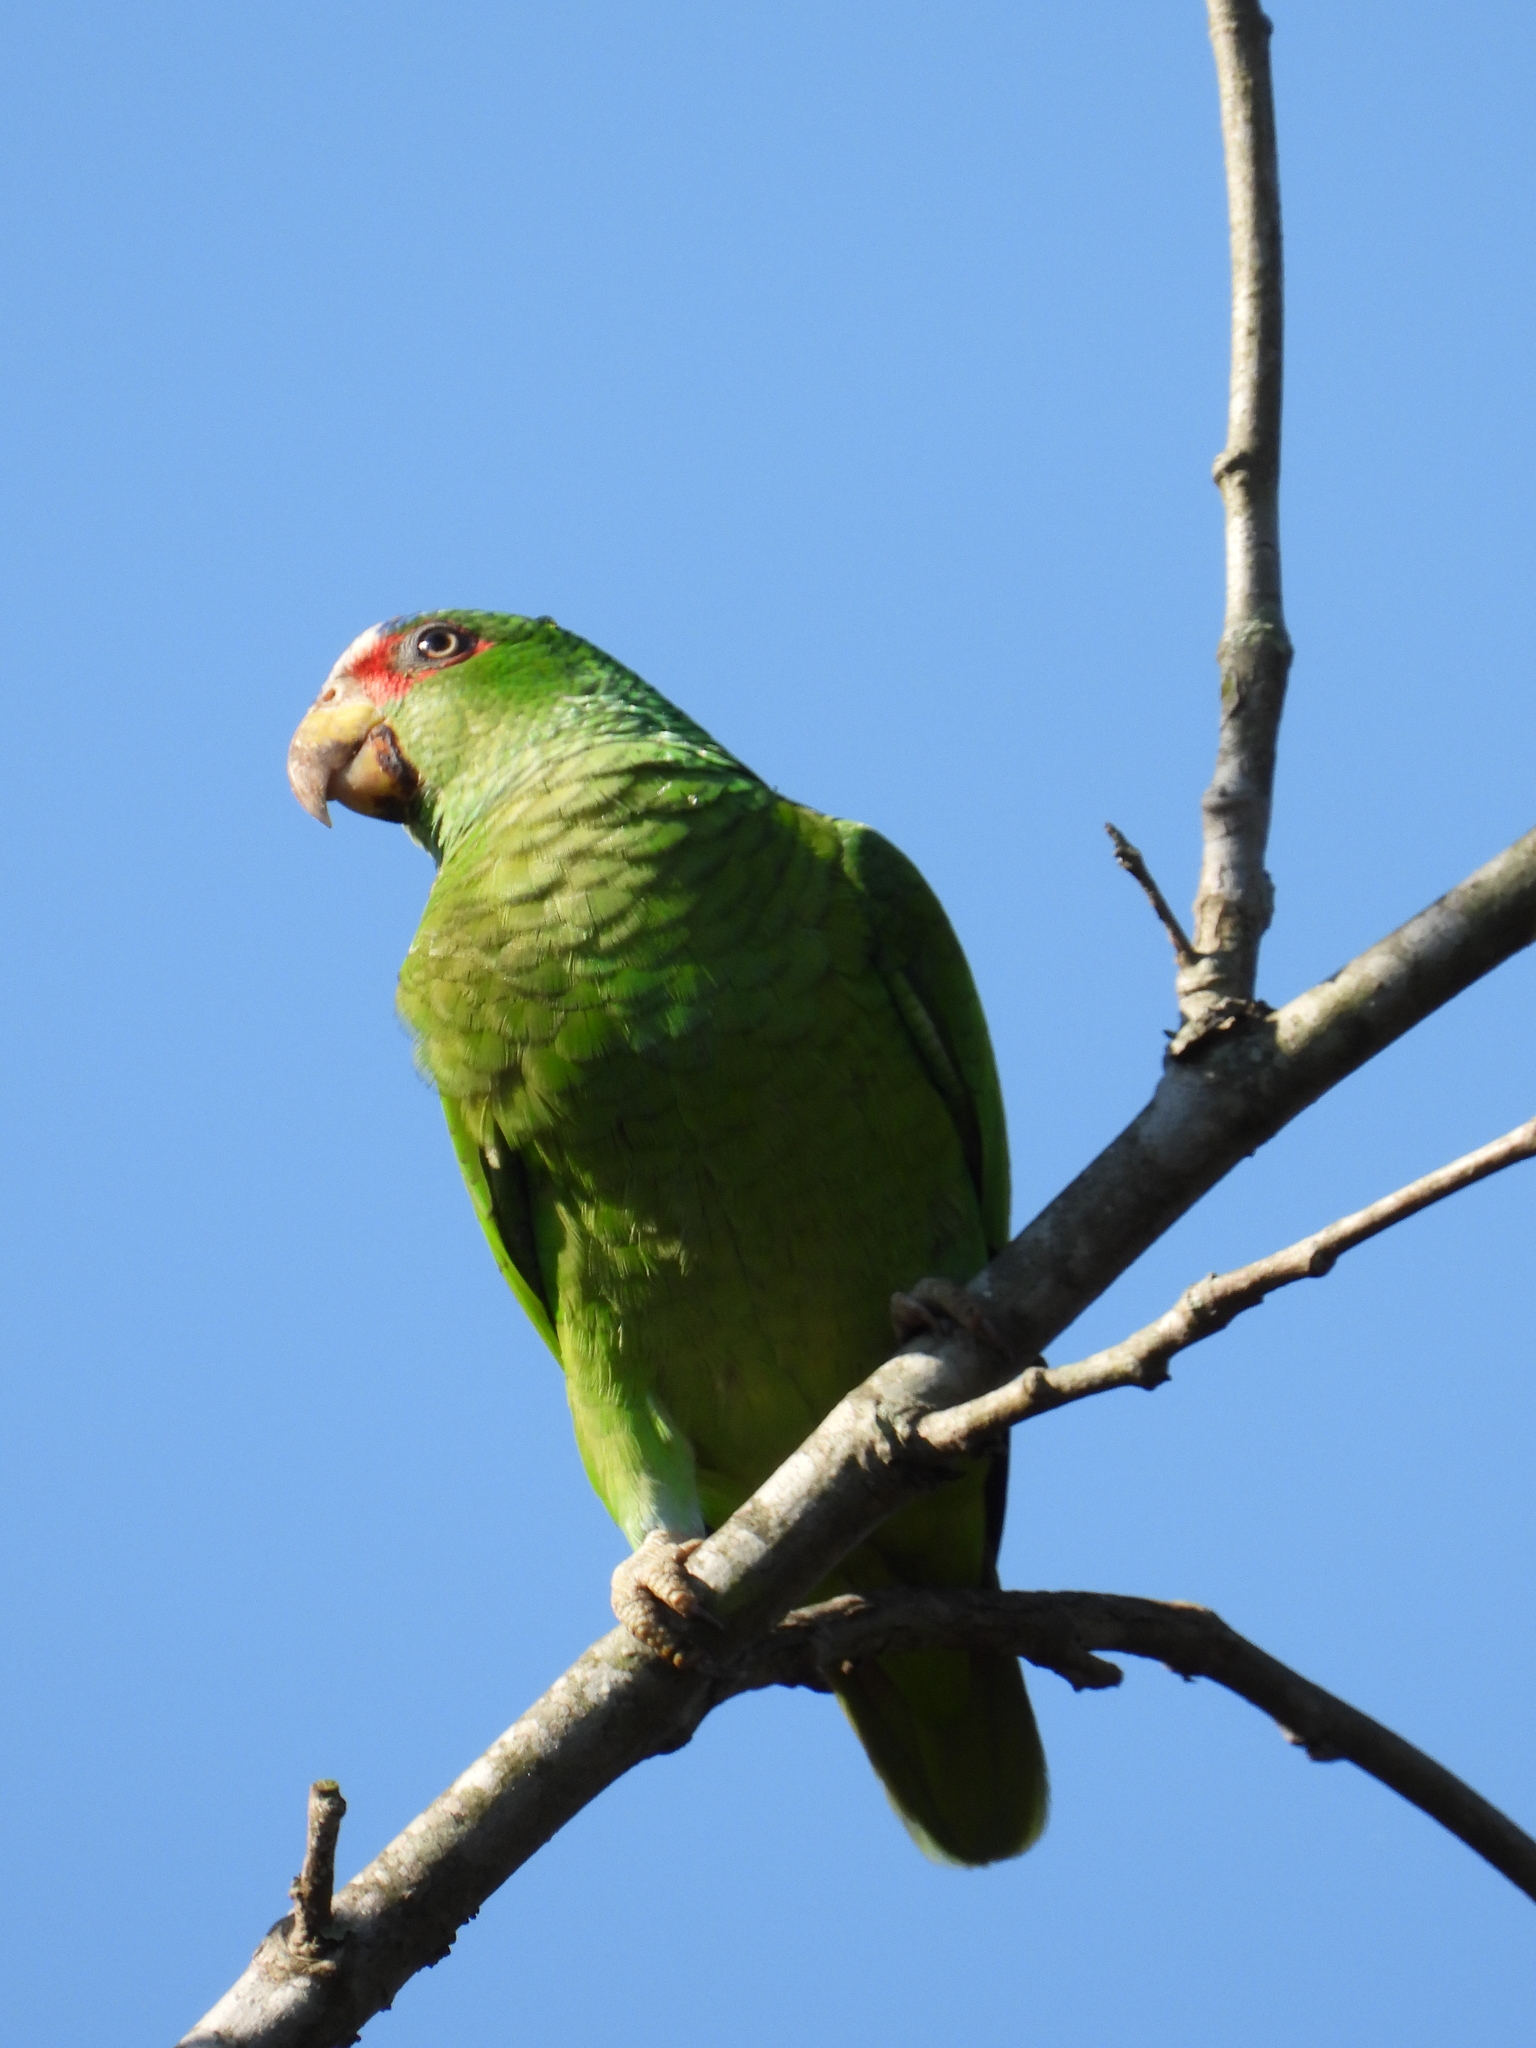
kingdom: Animalia
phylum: Chordata
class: Aves
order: Psittaciformes
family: Psittacidae
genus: Amazona
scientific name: Amazona albifrons
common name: White-fronted amazon
